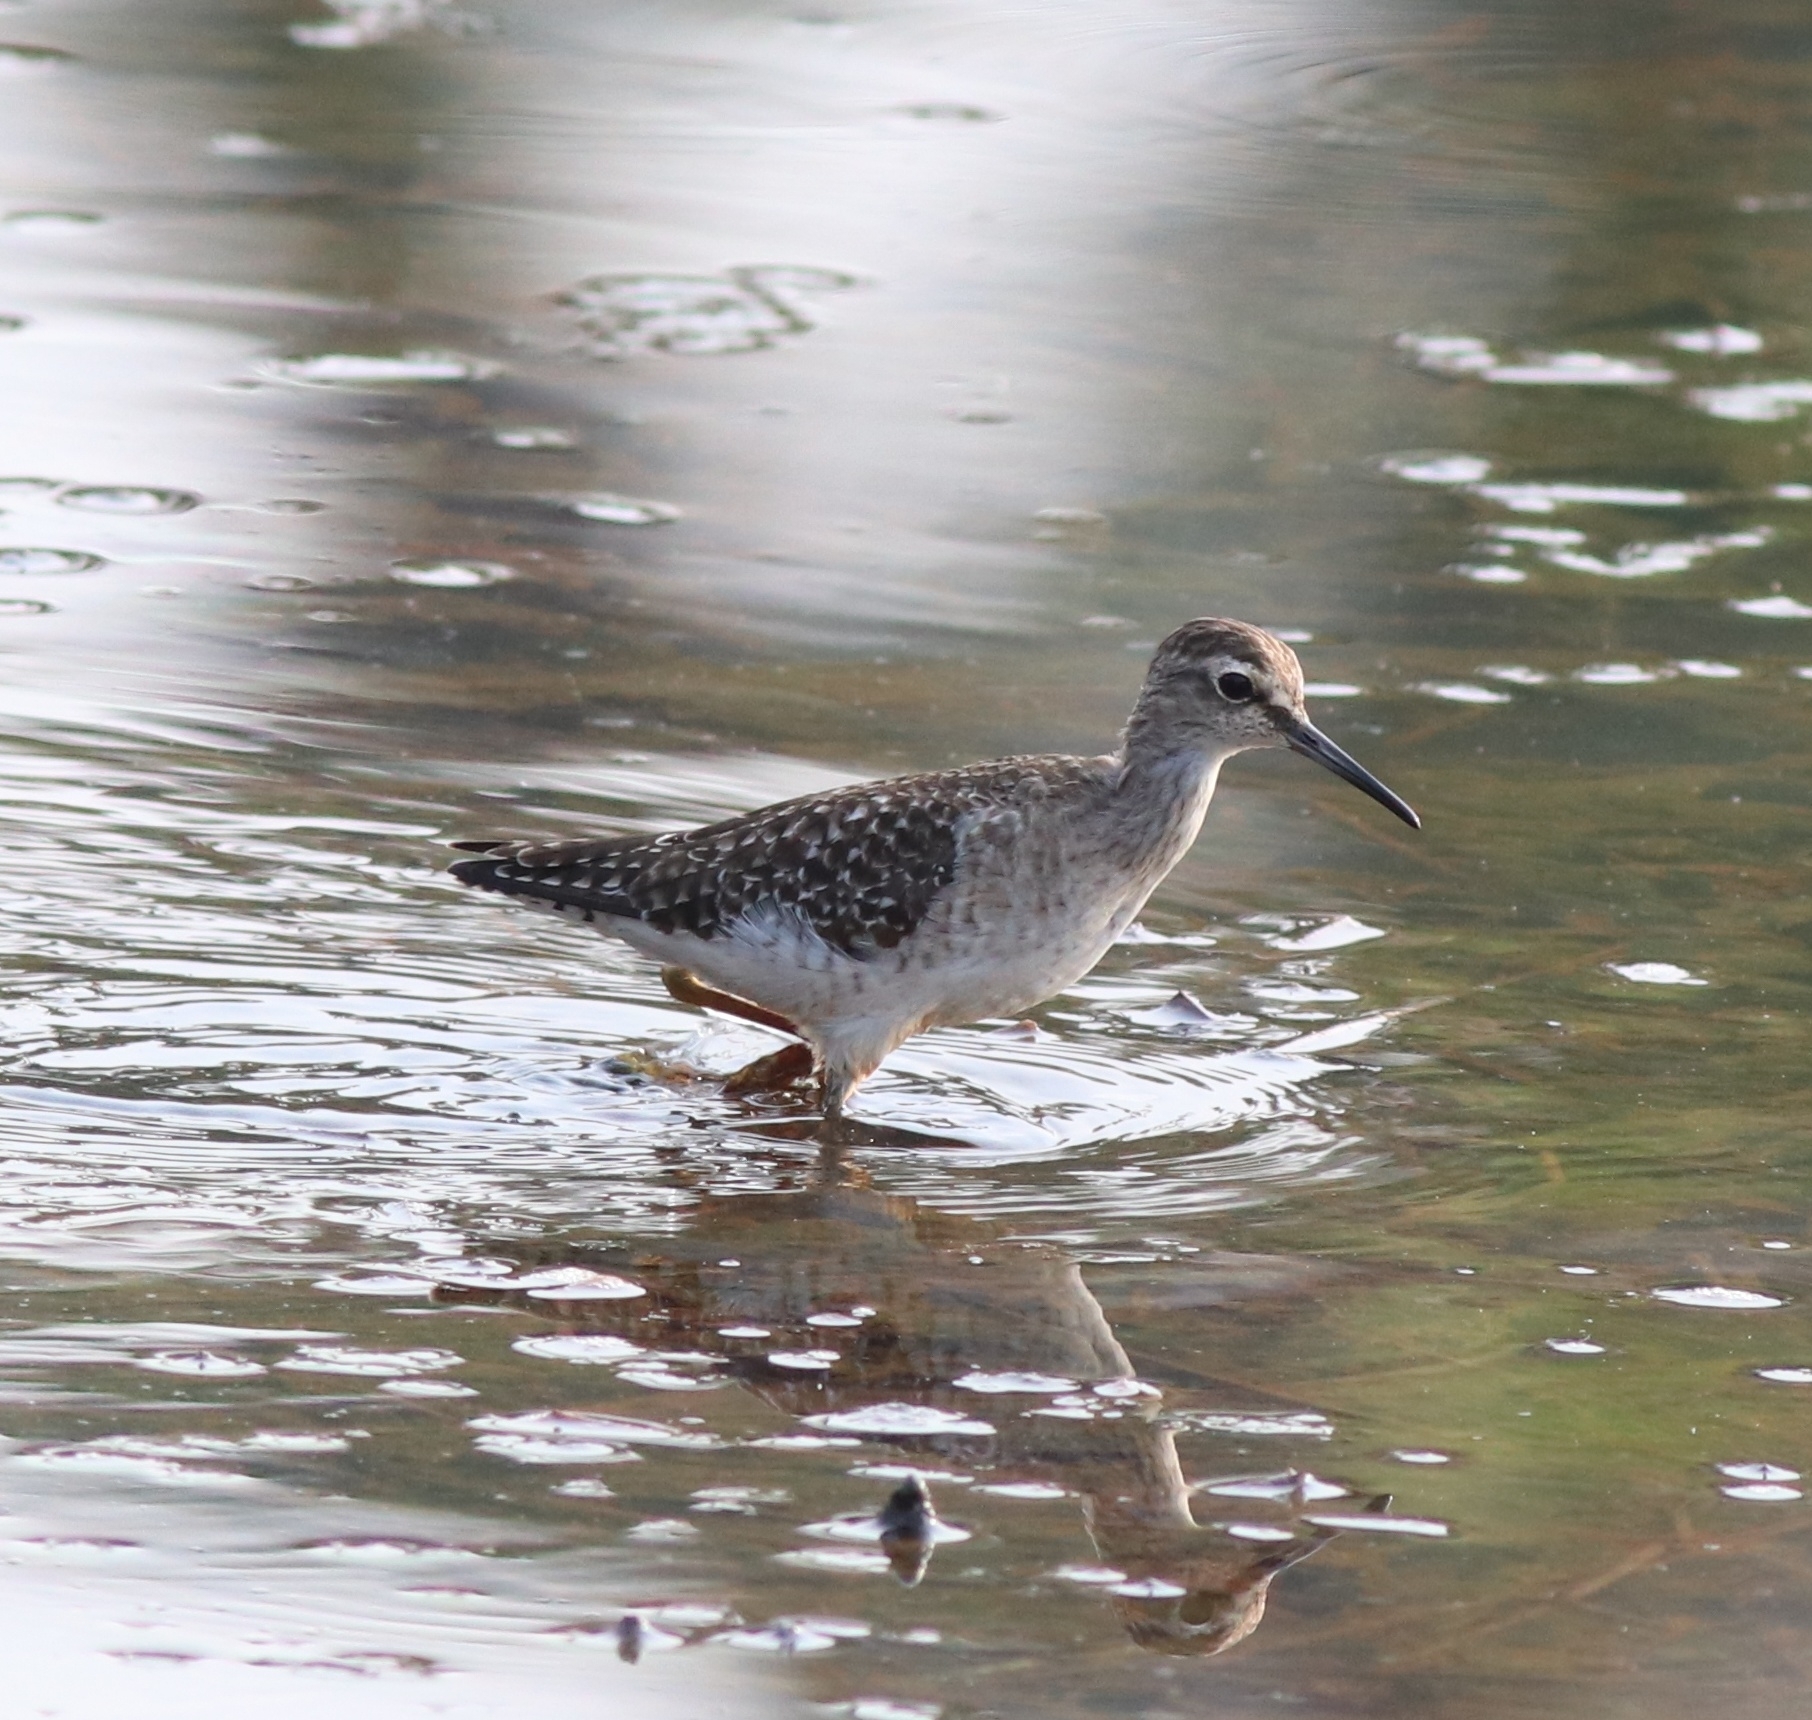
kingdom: Animalia
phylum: Chordata
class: Aves
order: Charadriiformes
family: Scolopacidae
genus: Tringa
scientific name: Tringa glareola
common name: Wood sandpiper
